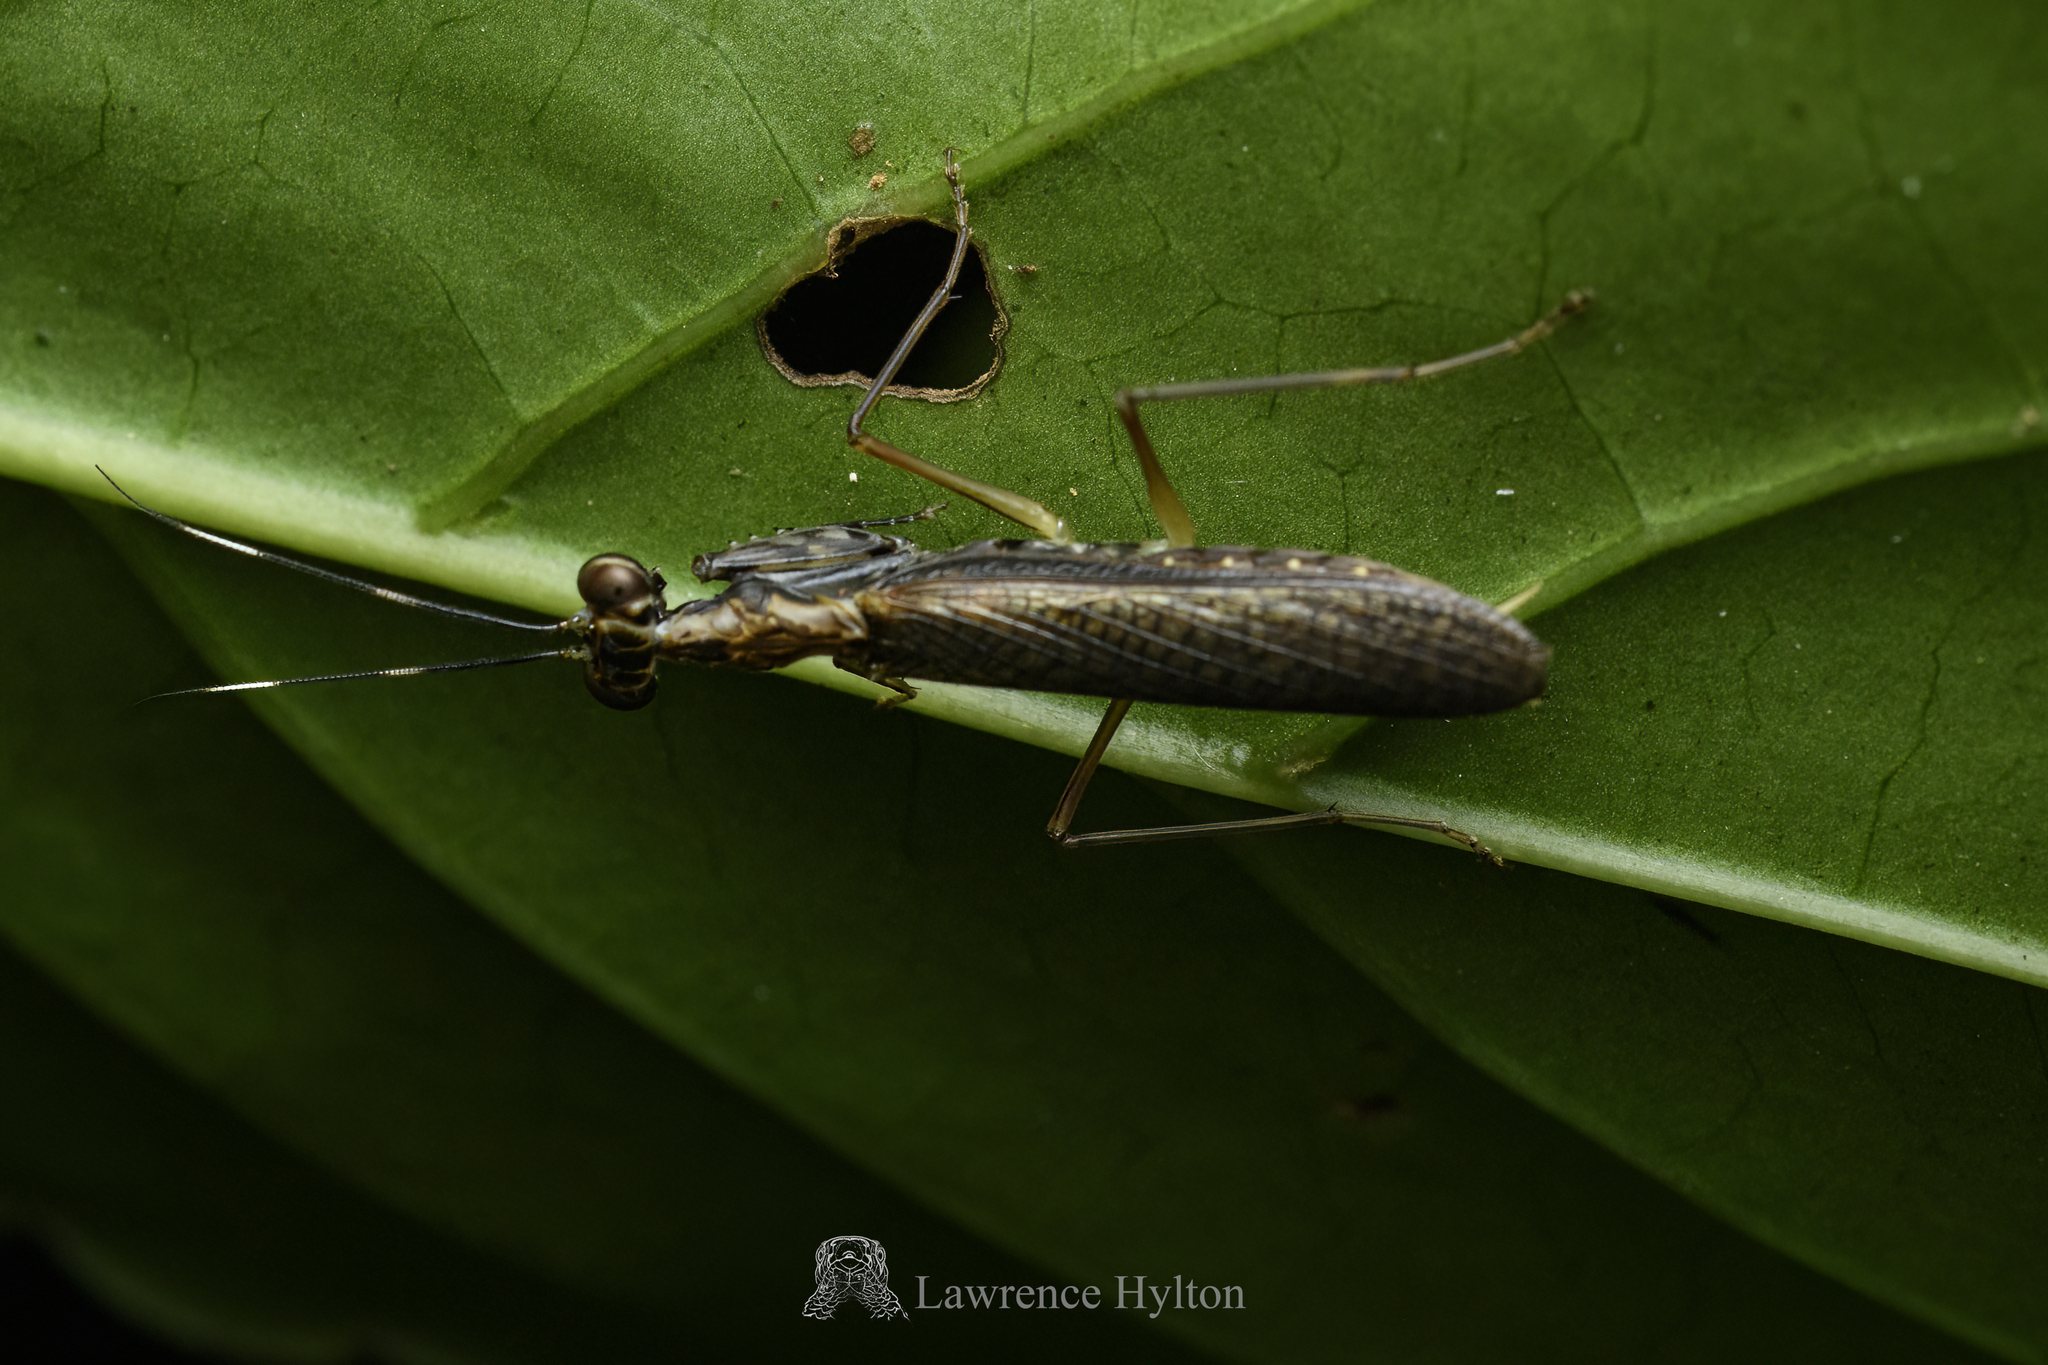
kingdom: Animalia
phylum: Arthropoda
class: Insecta
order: Mantodea
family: Gonypetidae
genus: Spilomantis
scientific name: Spilomantis occipitalis
